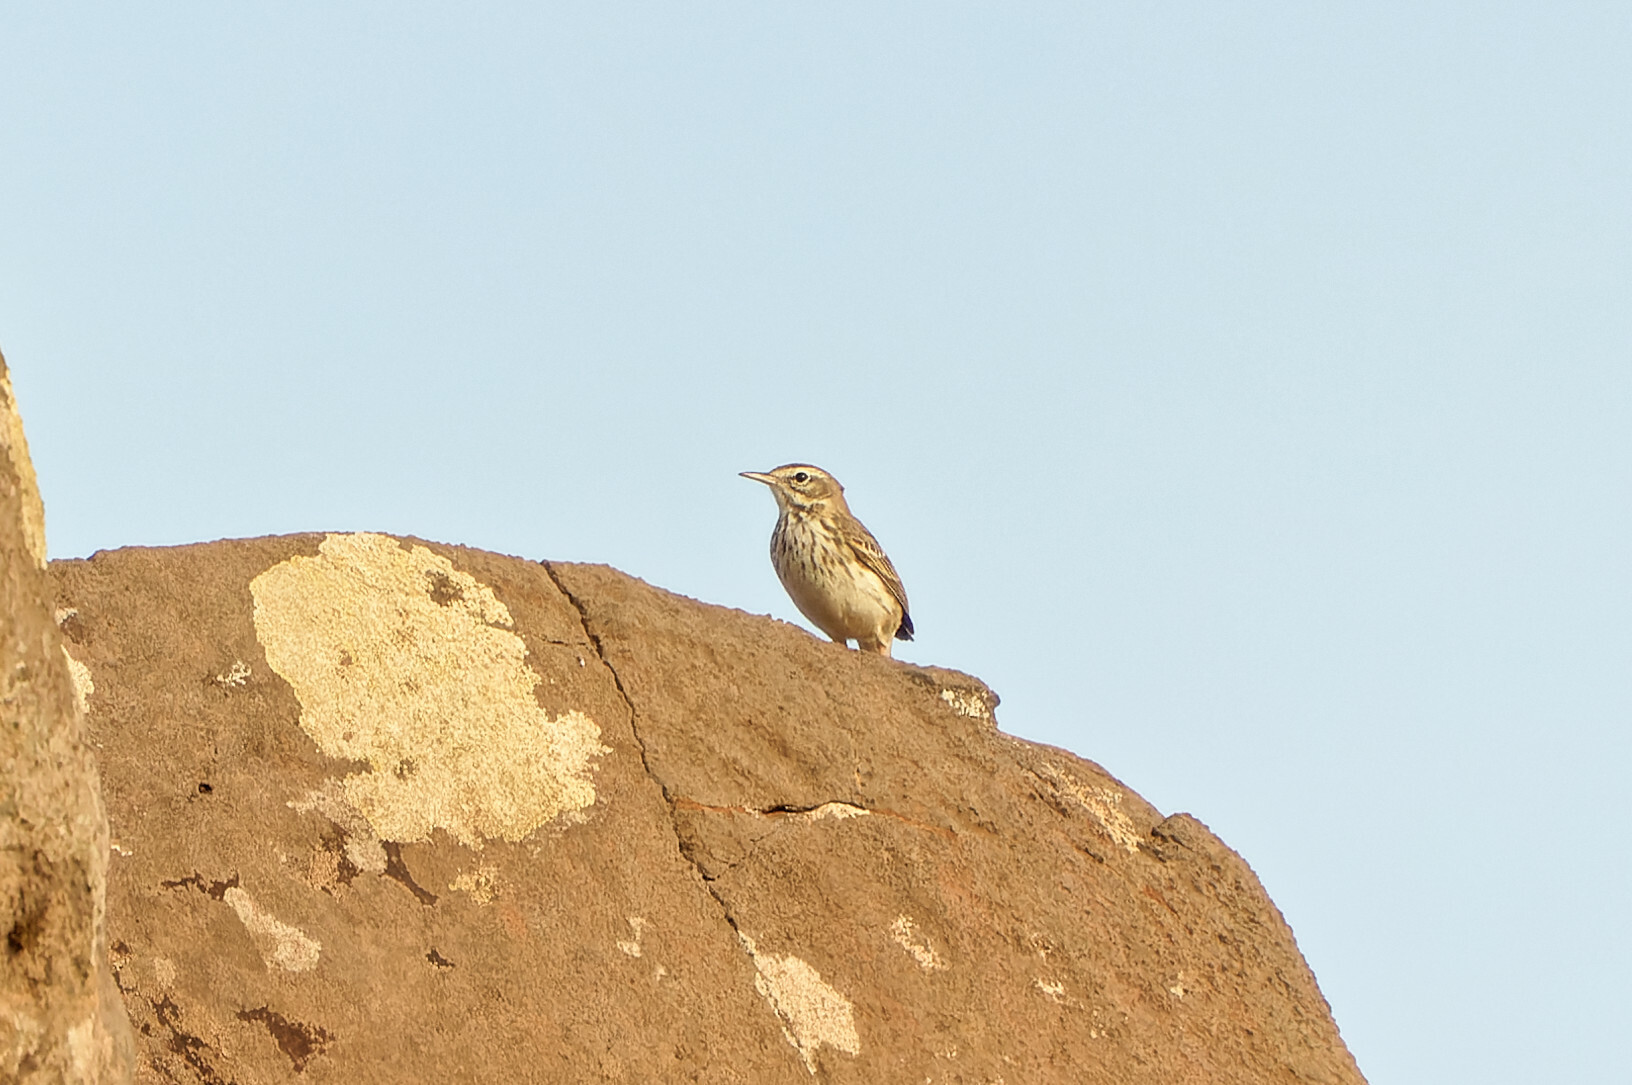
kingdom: Animalia
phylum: Chordata
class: Aves
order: Passeriformes
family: Motacillidae
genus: Anthus
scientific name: Anthus berthelotii
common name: Berthelot's pipit
